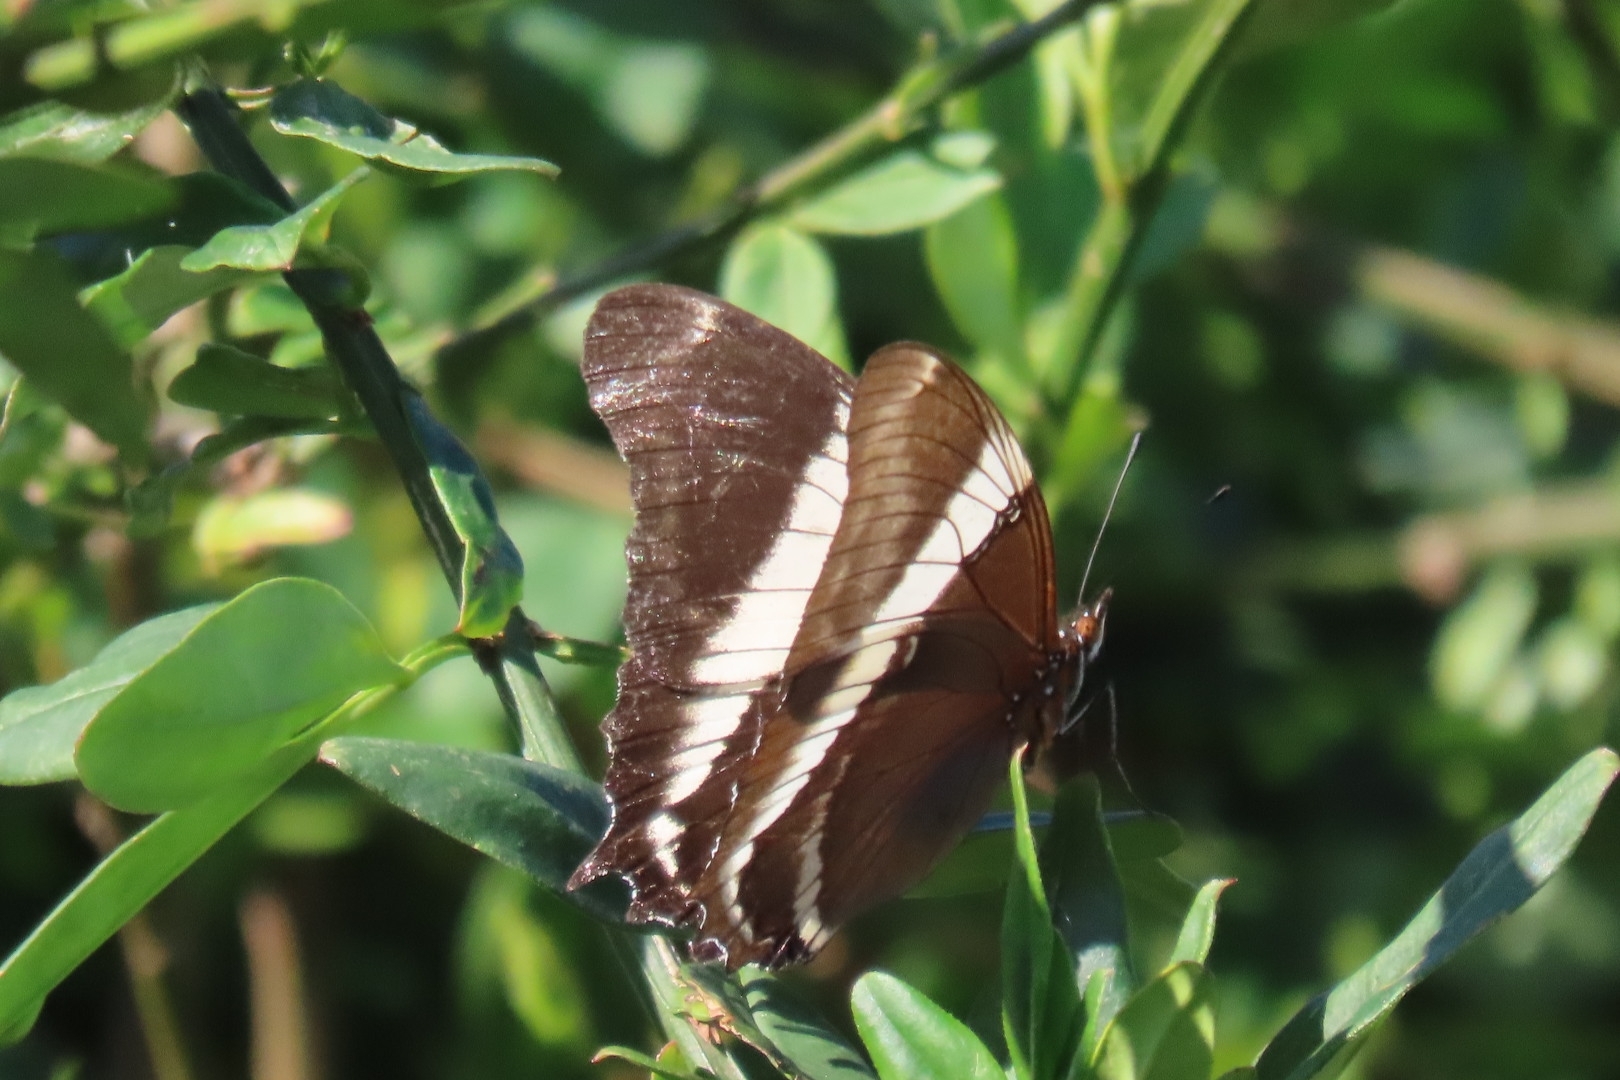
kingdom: Animalia
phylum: Arthropoda
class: Insecta
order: Lepidoptera
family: Nymphalidae
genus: Siproeta
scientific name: Siproeta epaphus
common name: Rusty-tipped page
